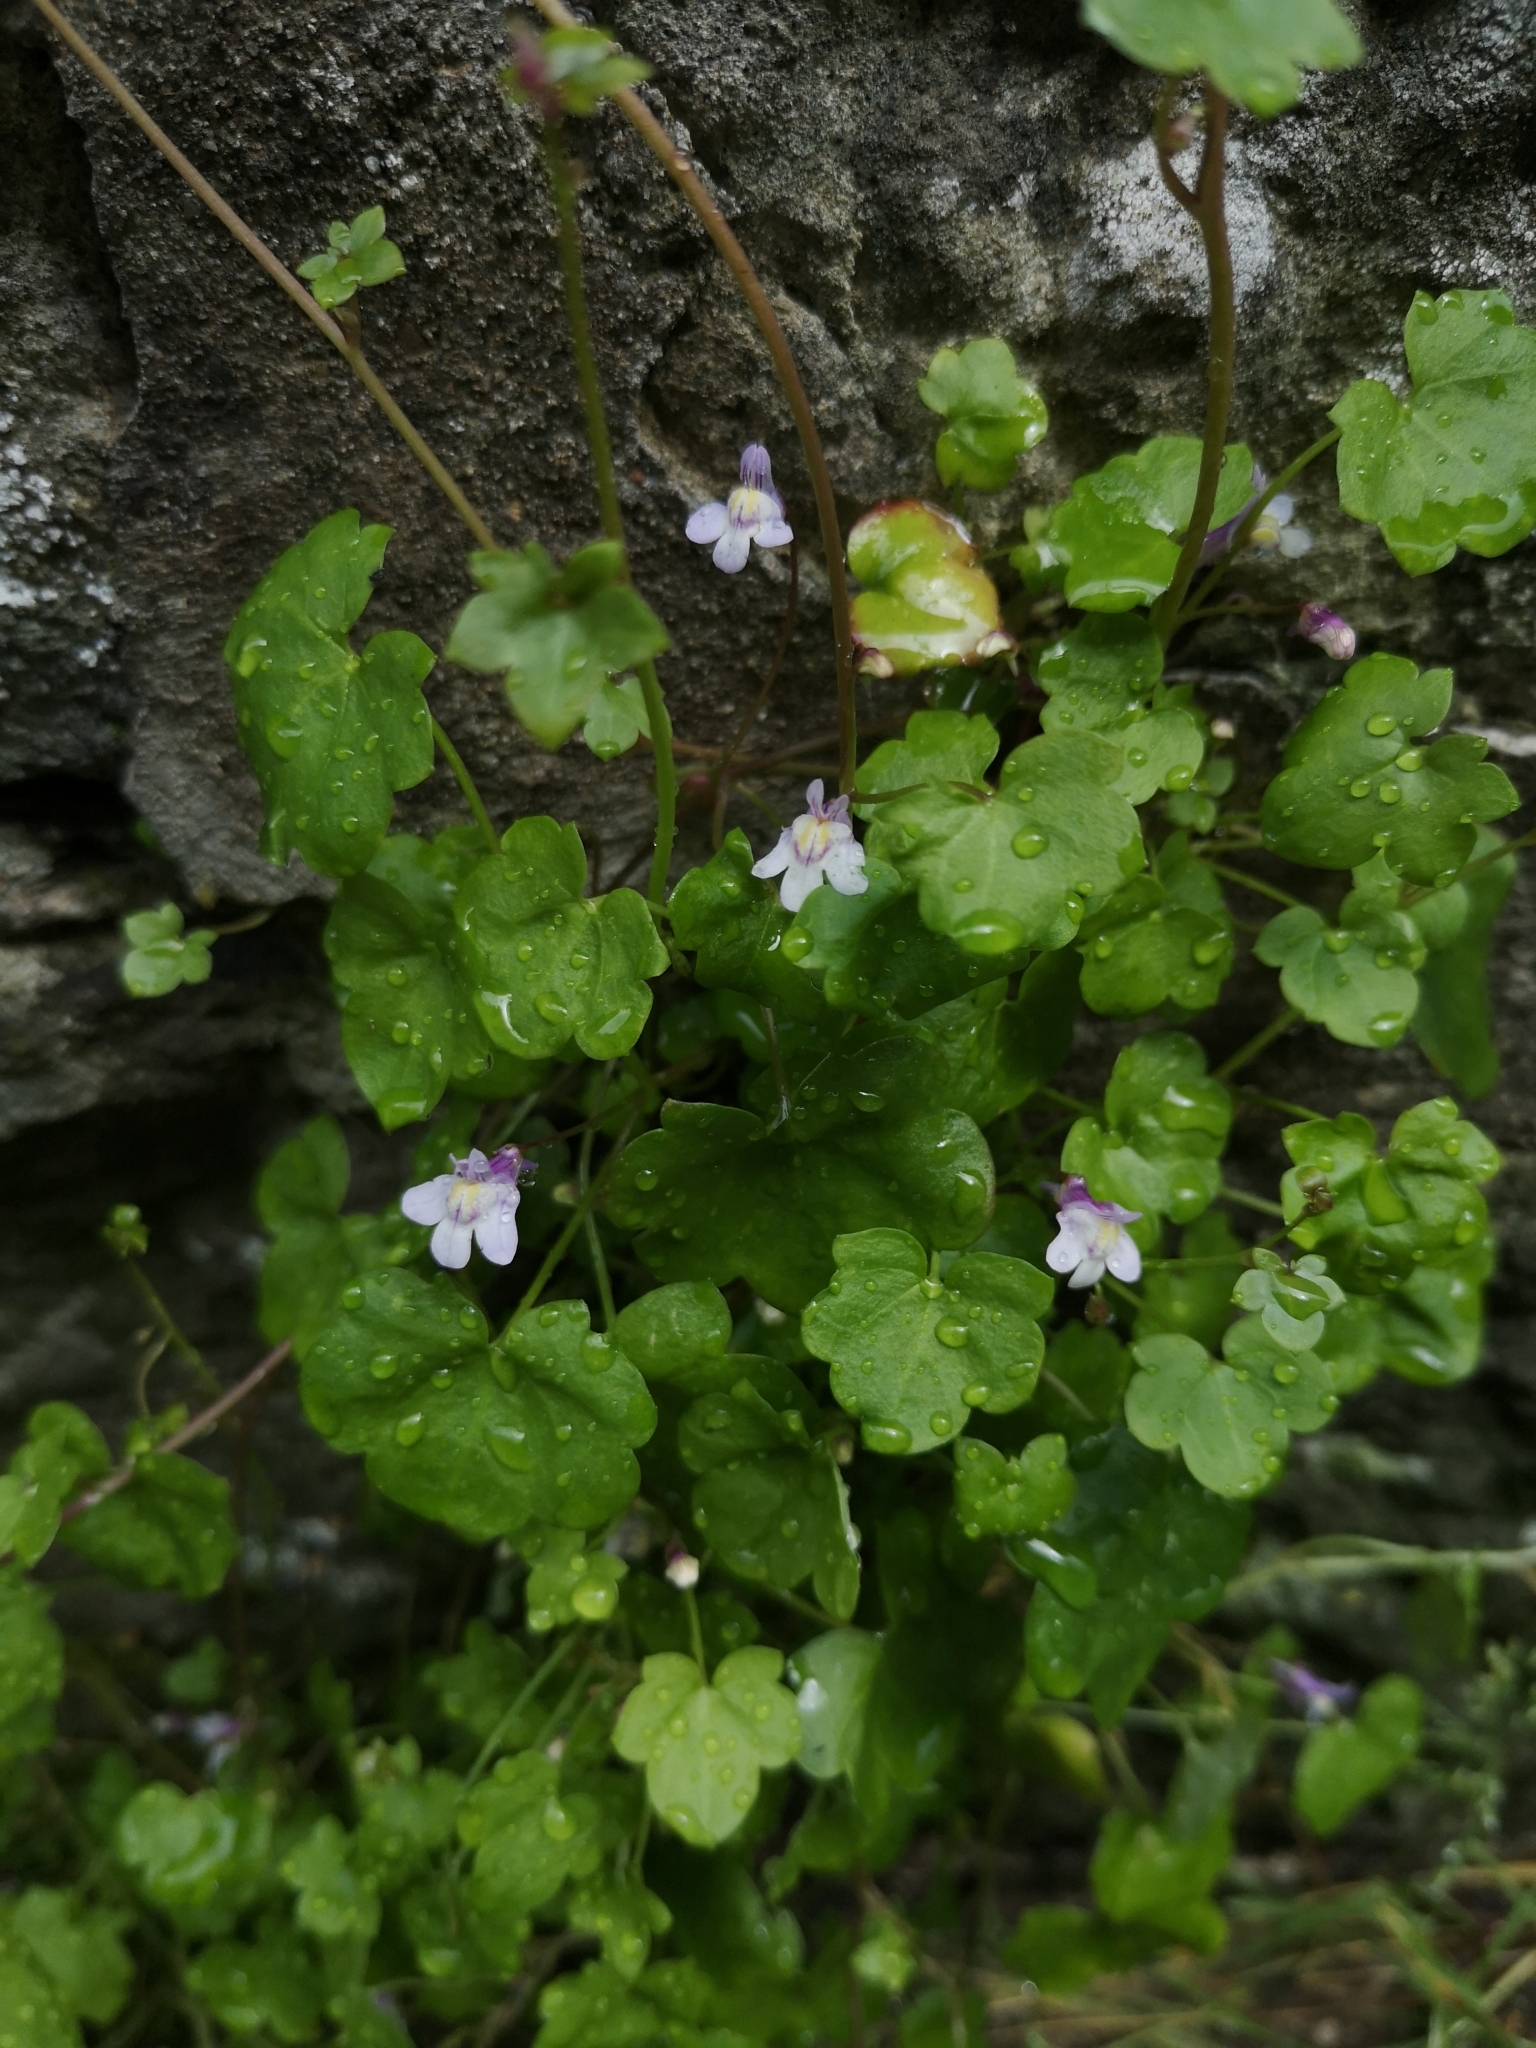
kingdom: Plantae
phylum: Tracheophyta
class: Magnoliopsida
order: Lamiales
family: Plantaginaceae
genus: Cymbalaria
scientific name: Cymbalaria muralis
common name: Ivy-leaved toadflax
